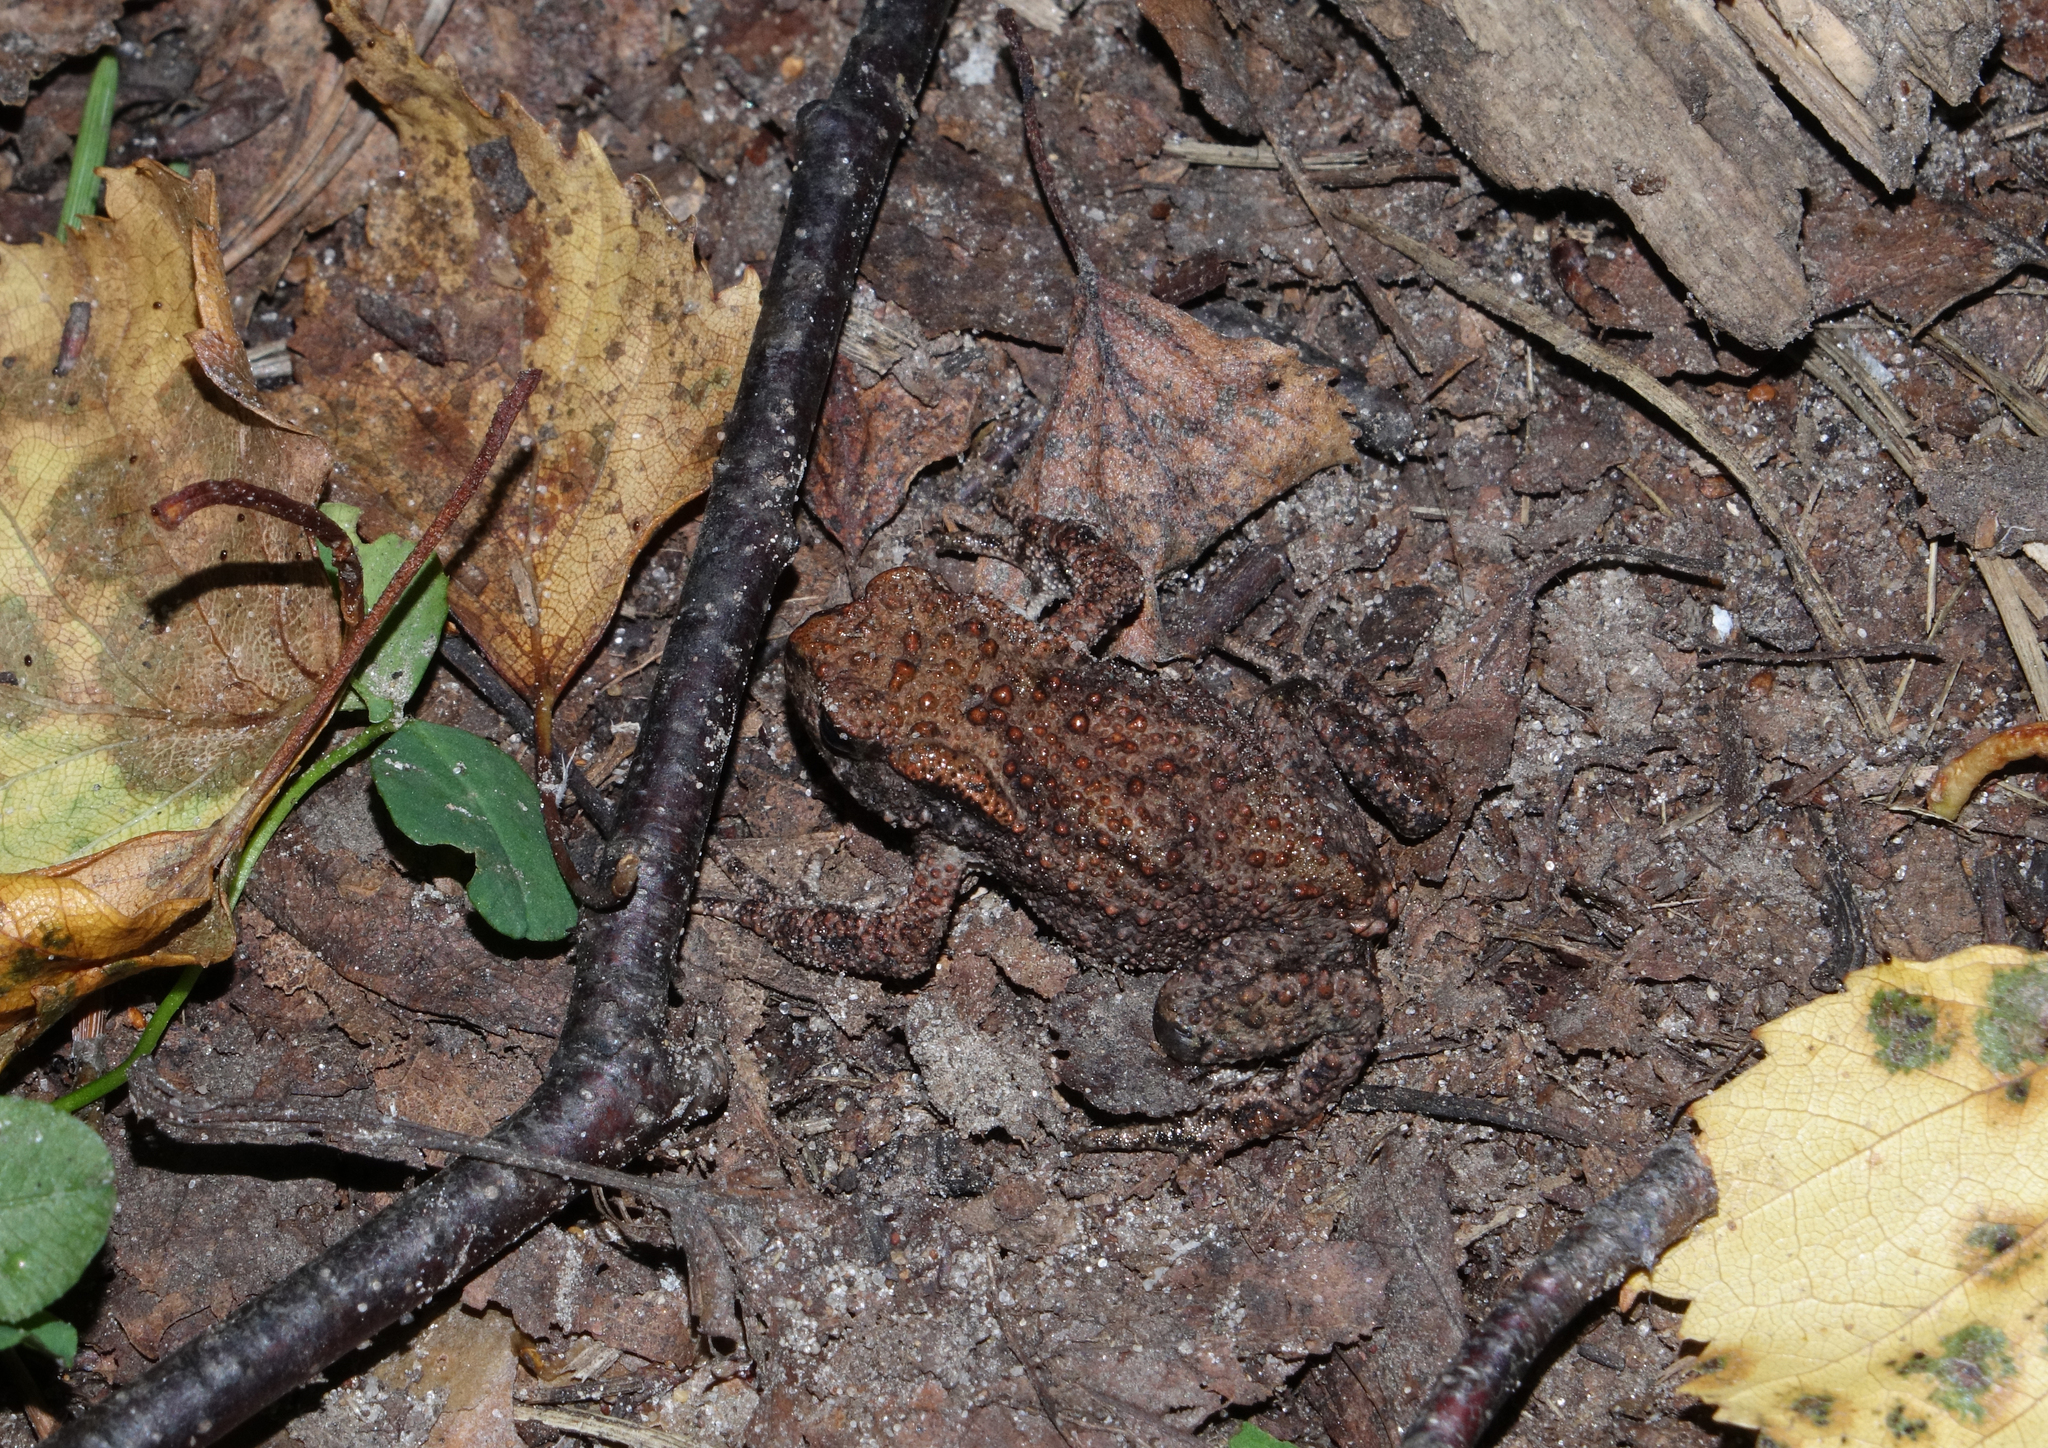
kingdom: Animalia
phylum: Chordata
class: Amphibia
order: Anura
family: Bufonidae
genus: Bufo
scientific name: Bufo bufo
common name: Common toad
